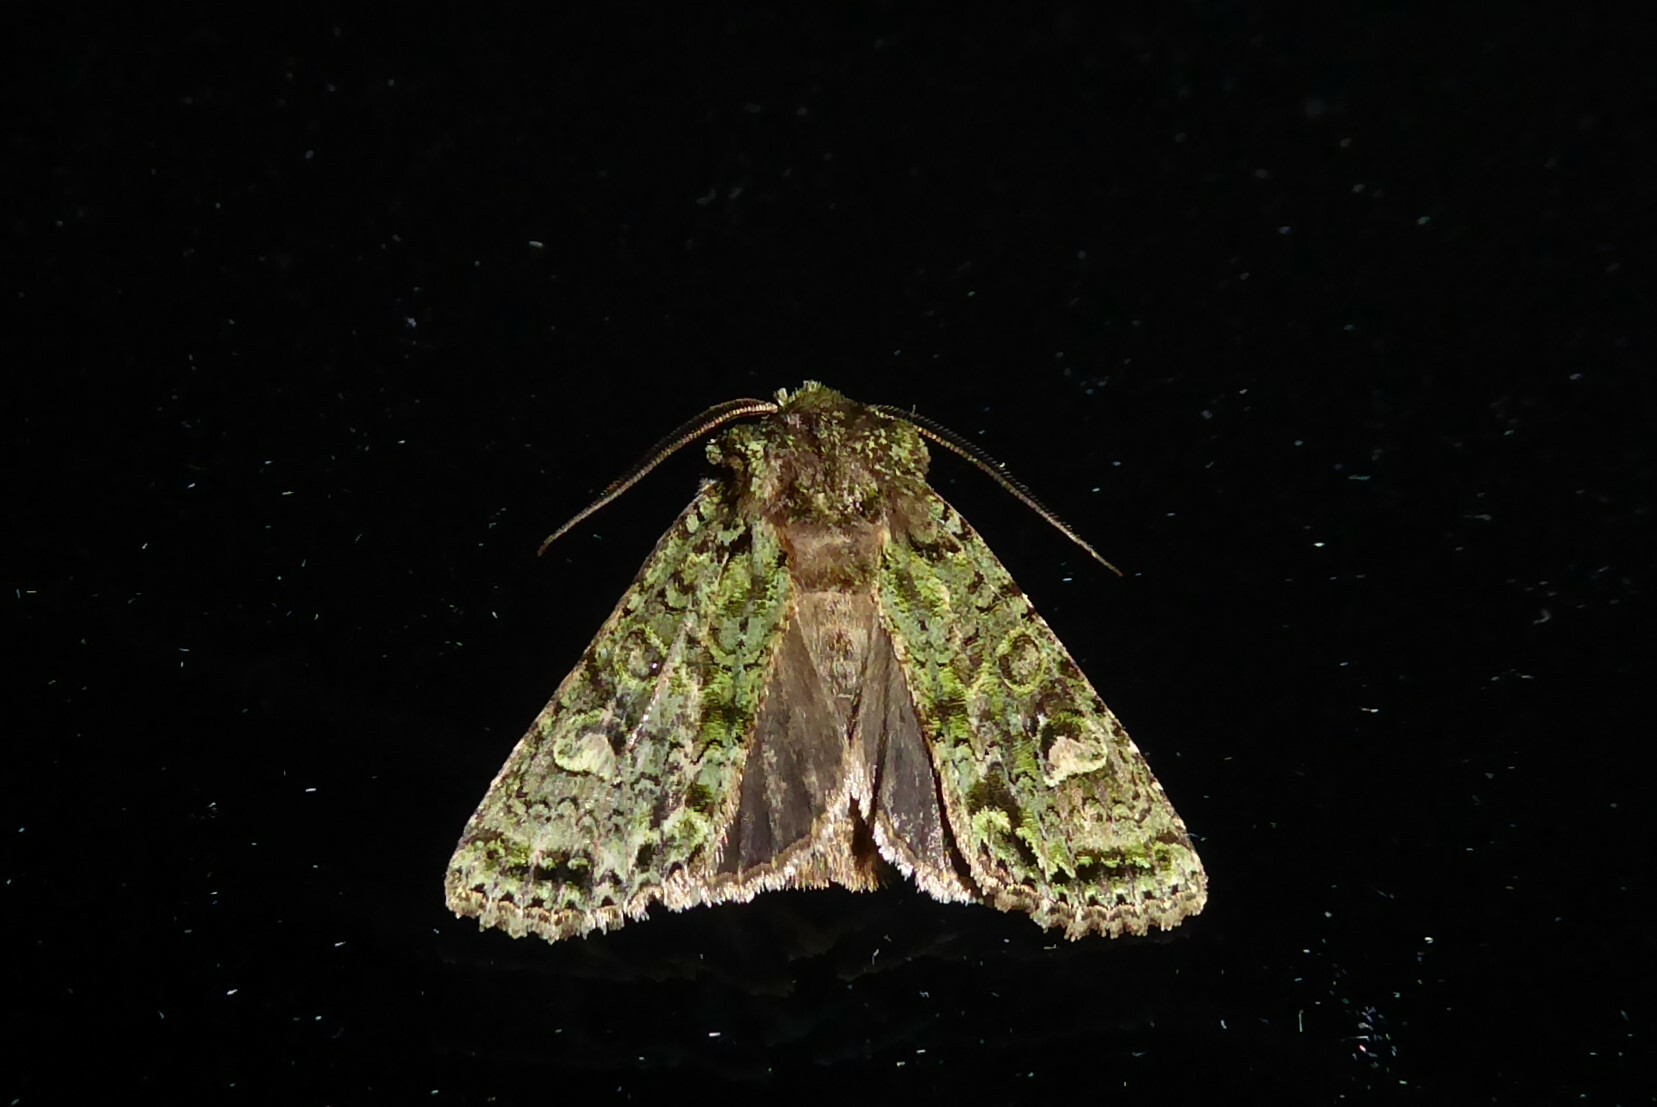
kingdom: Animalia
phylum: Arthropoda
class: Insecta
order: Lepidoptera
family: Noctuidae
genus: Ichneutica
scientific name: Ichneutica
